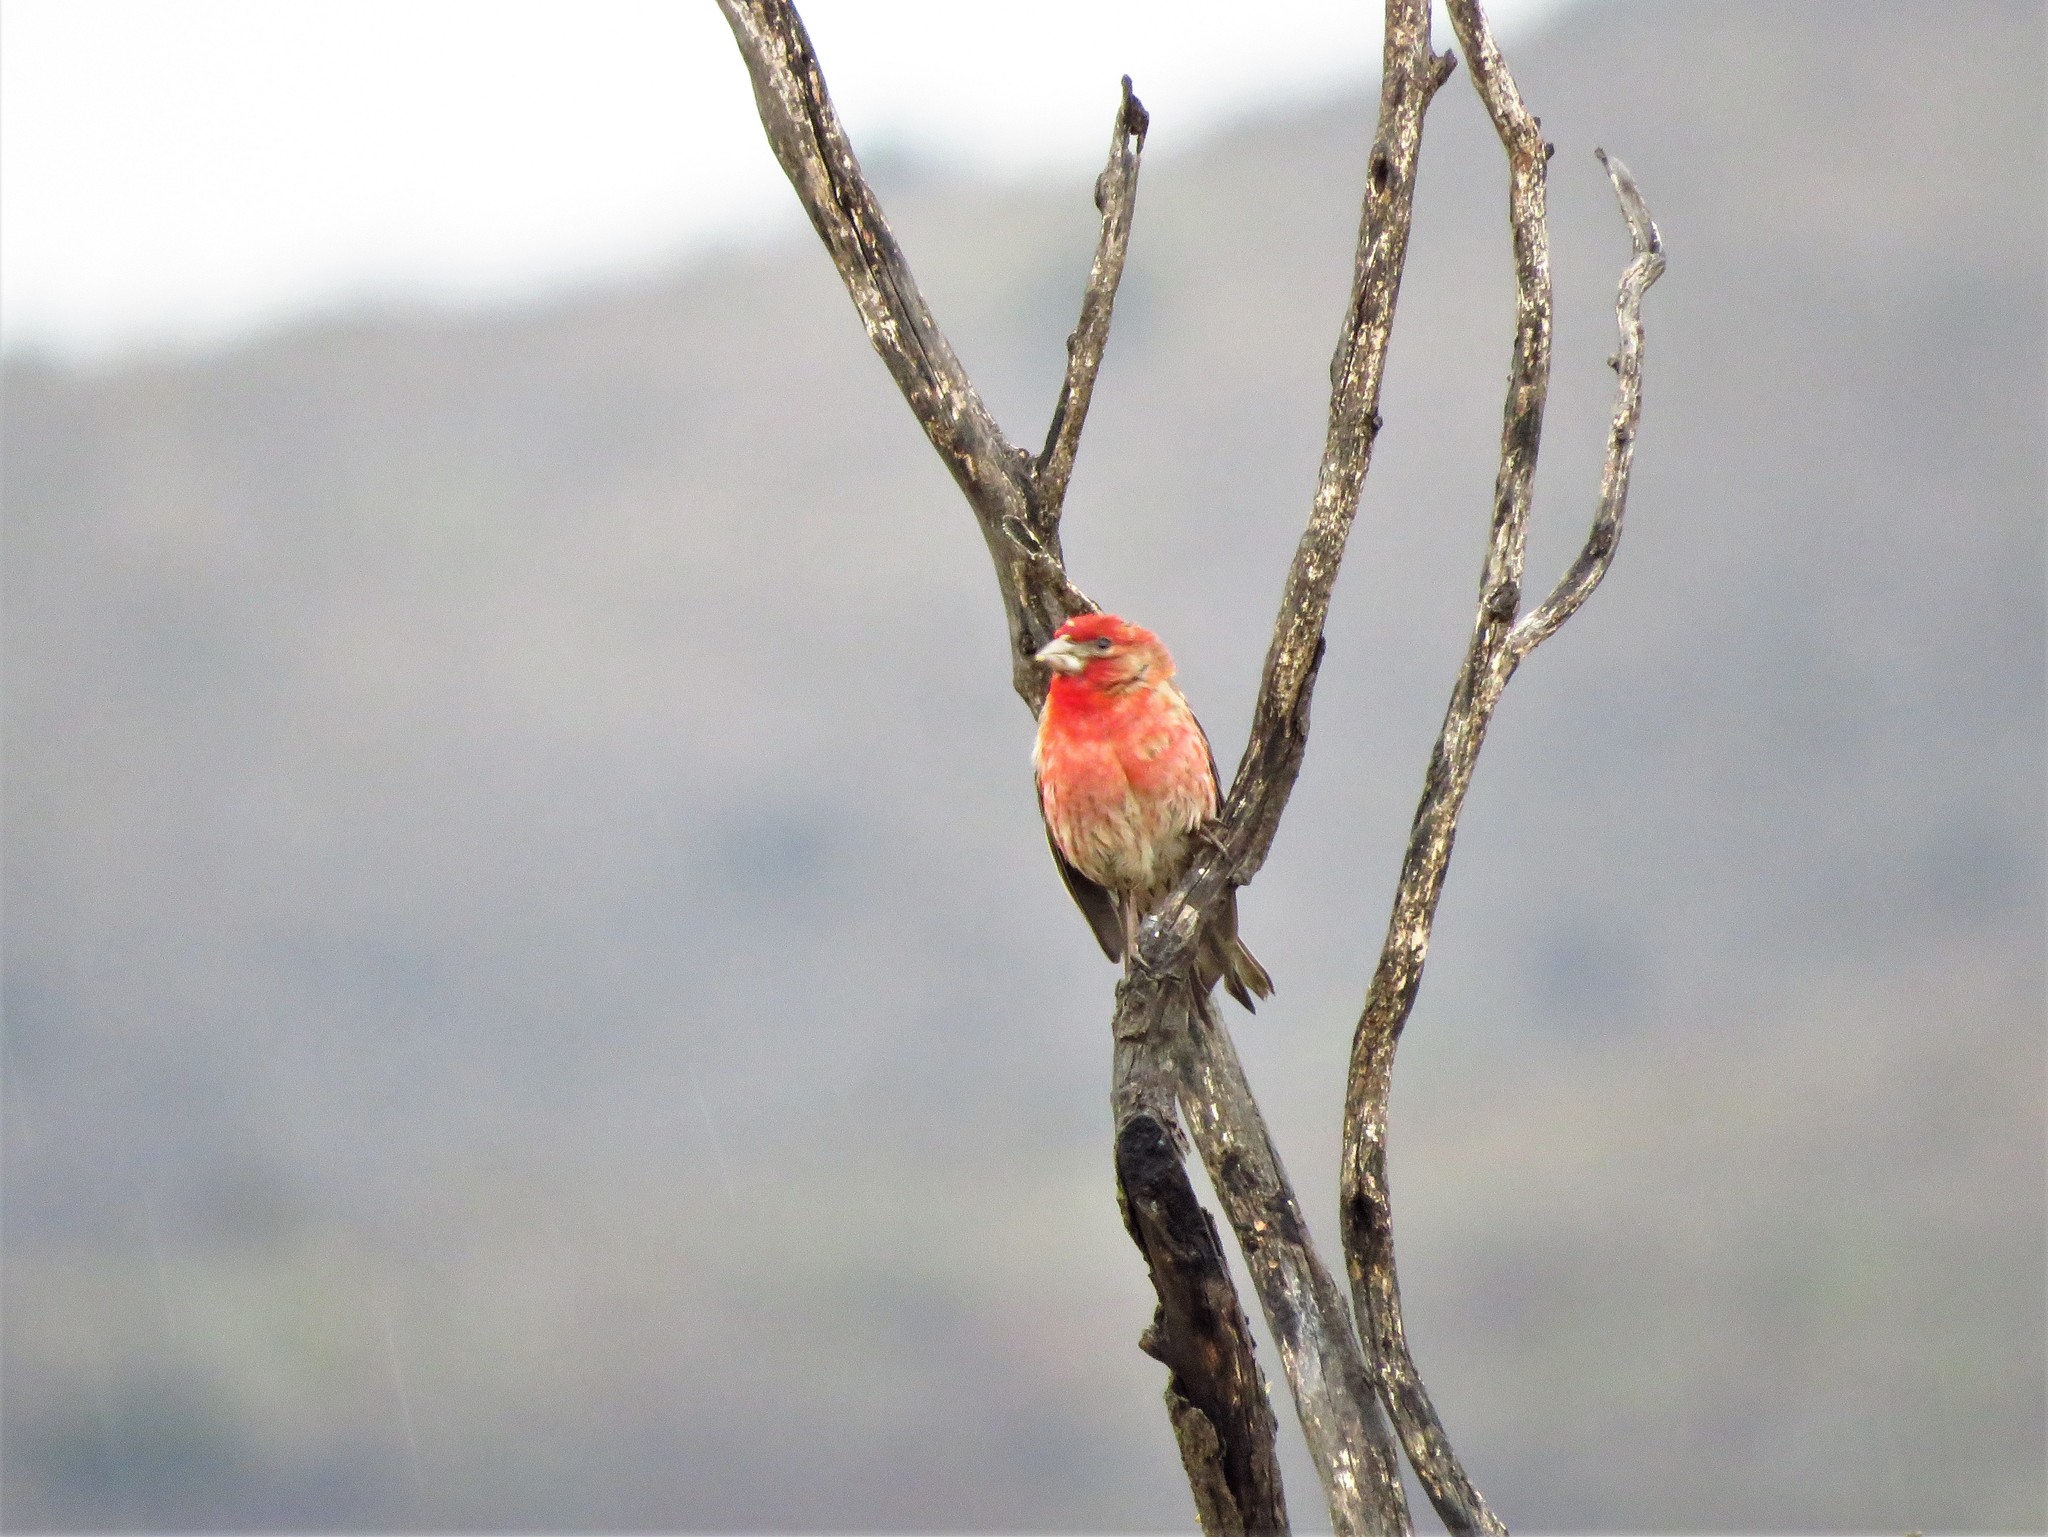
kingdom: Animalia
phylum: Chordata
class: Aves
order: Passeriformes
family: Fringillidae
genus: Haemorhous
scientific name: Haemorhous mexicanus
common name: House finch
